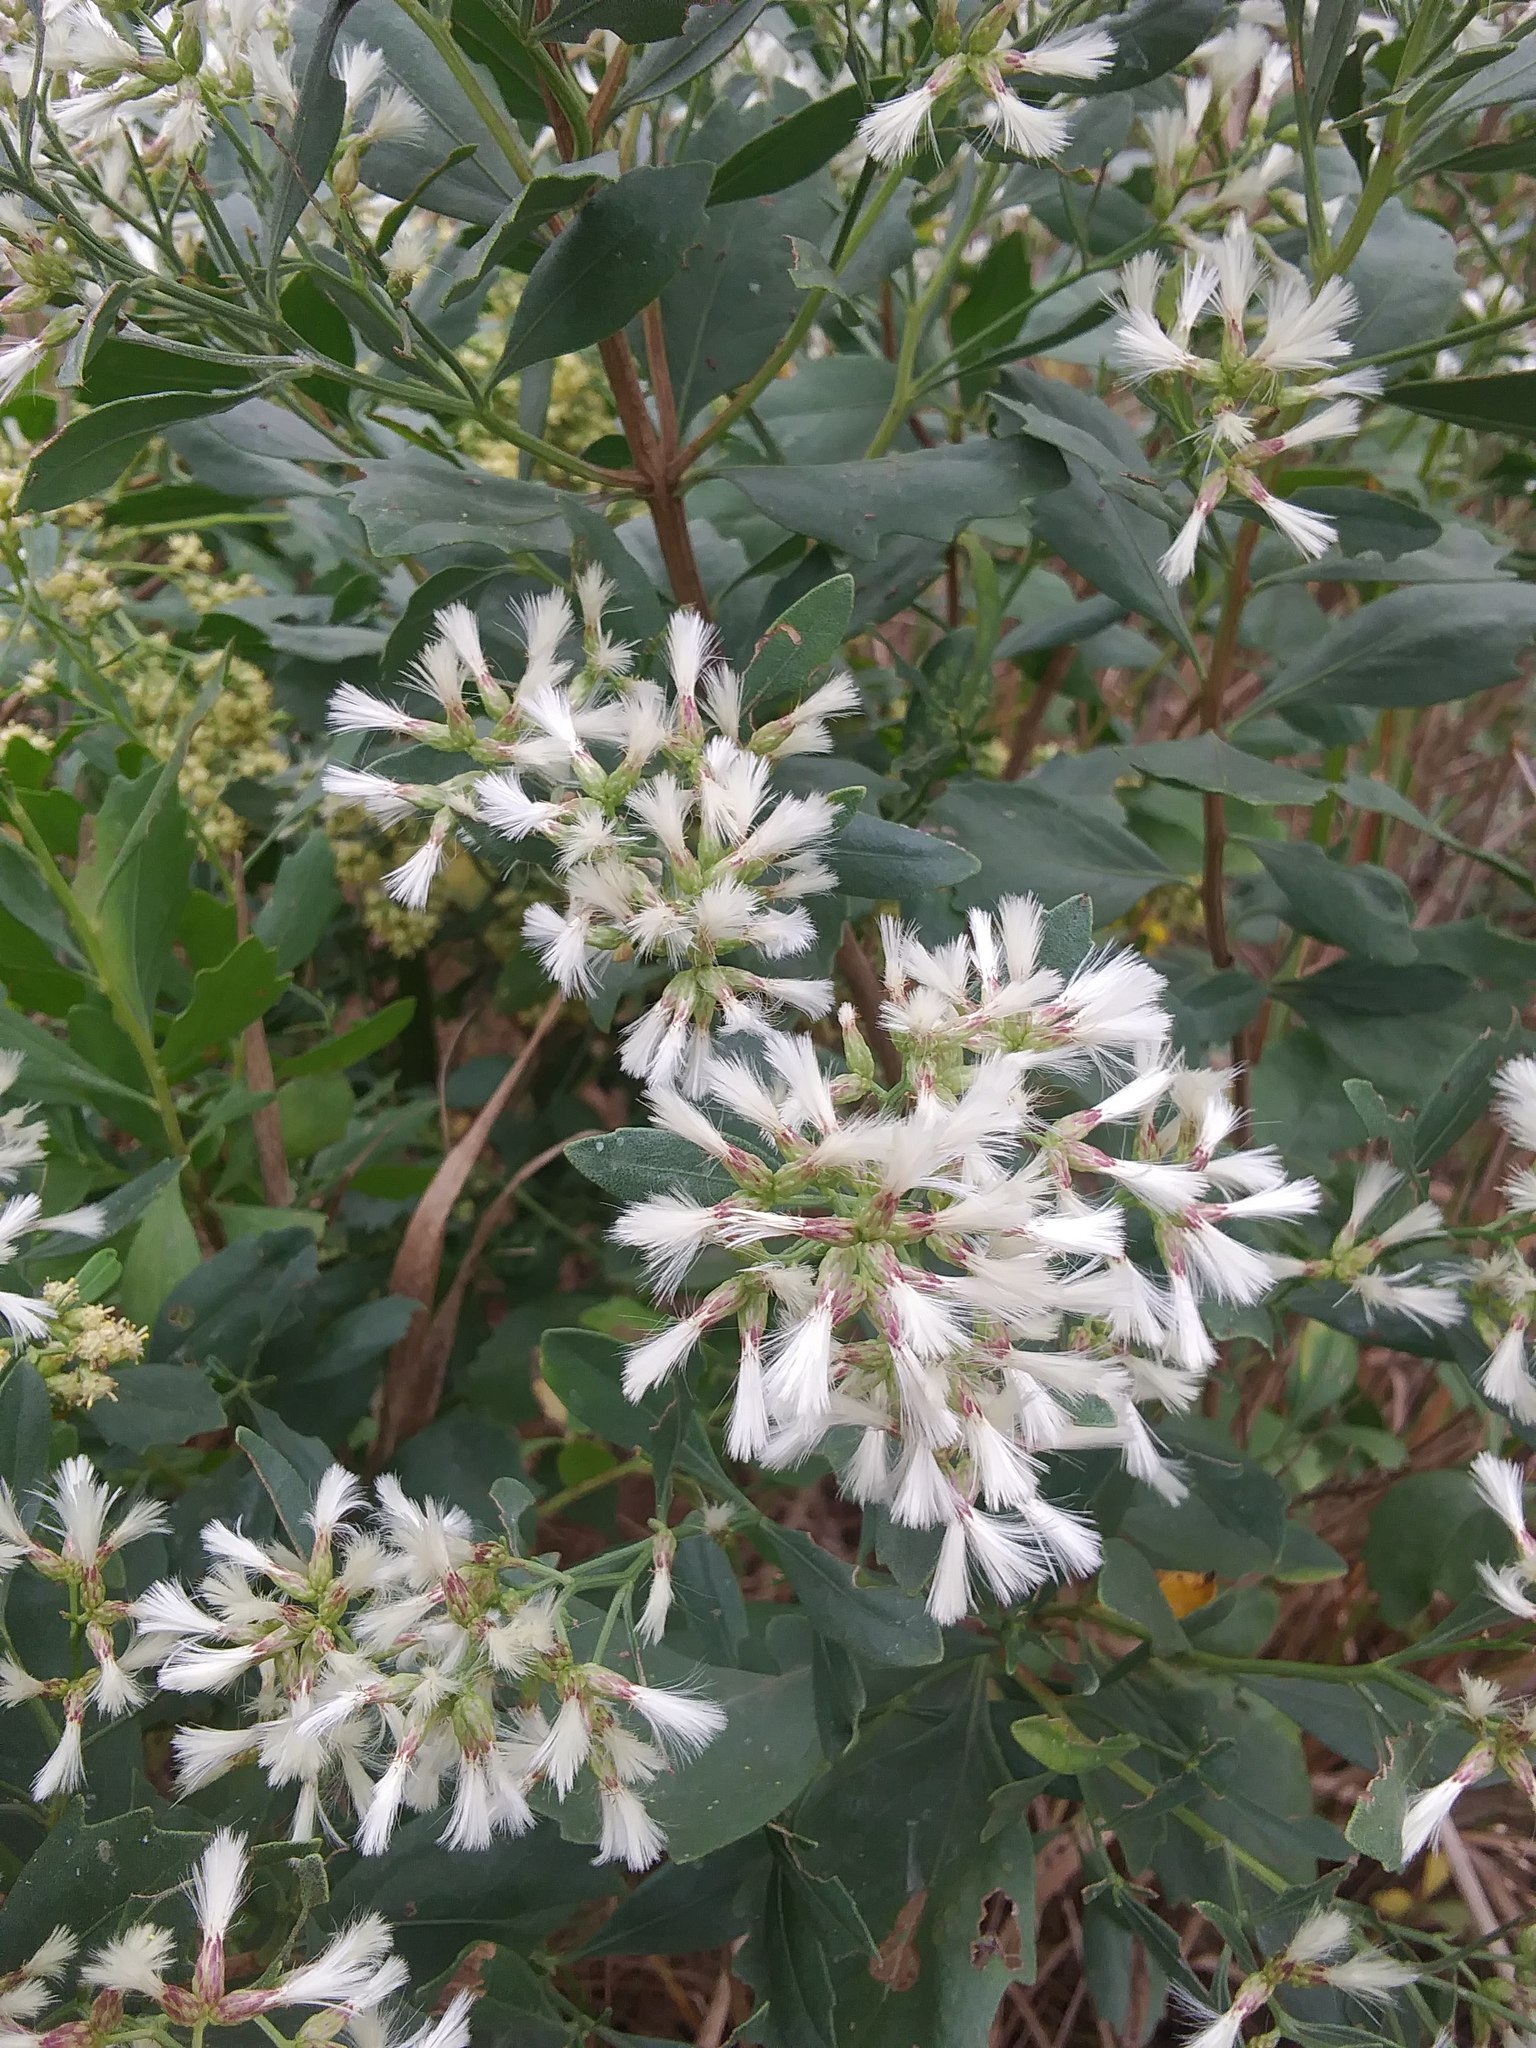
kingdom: Plantae
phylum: Tracheophyta
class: Magnoliopsida
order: Asterales
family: Asteraceae
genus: Baccharis
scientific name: Baccharis halimifolia
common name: Eastern baccharis
